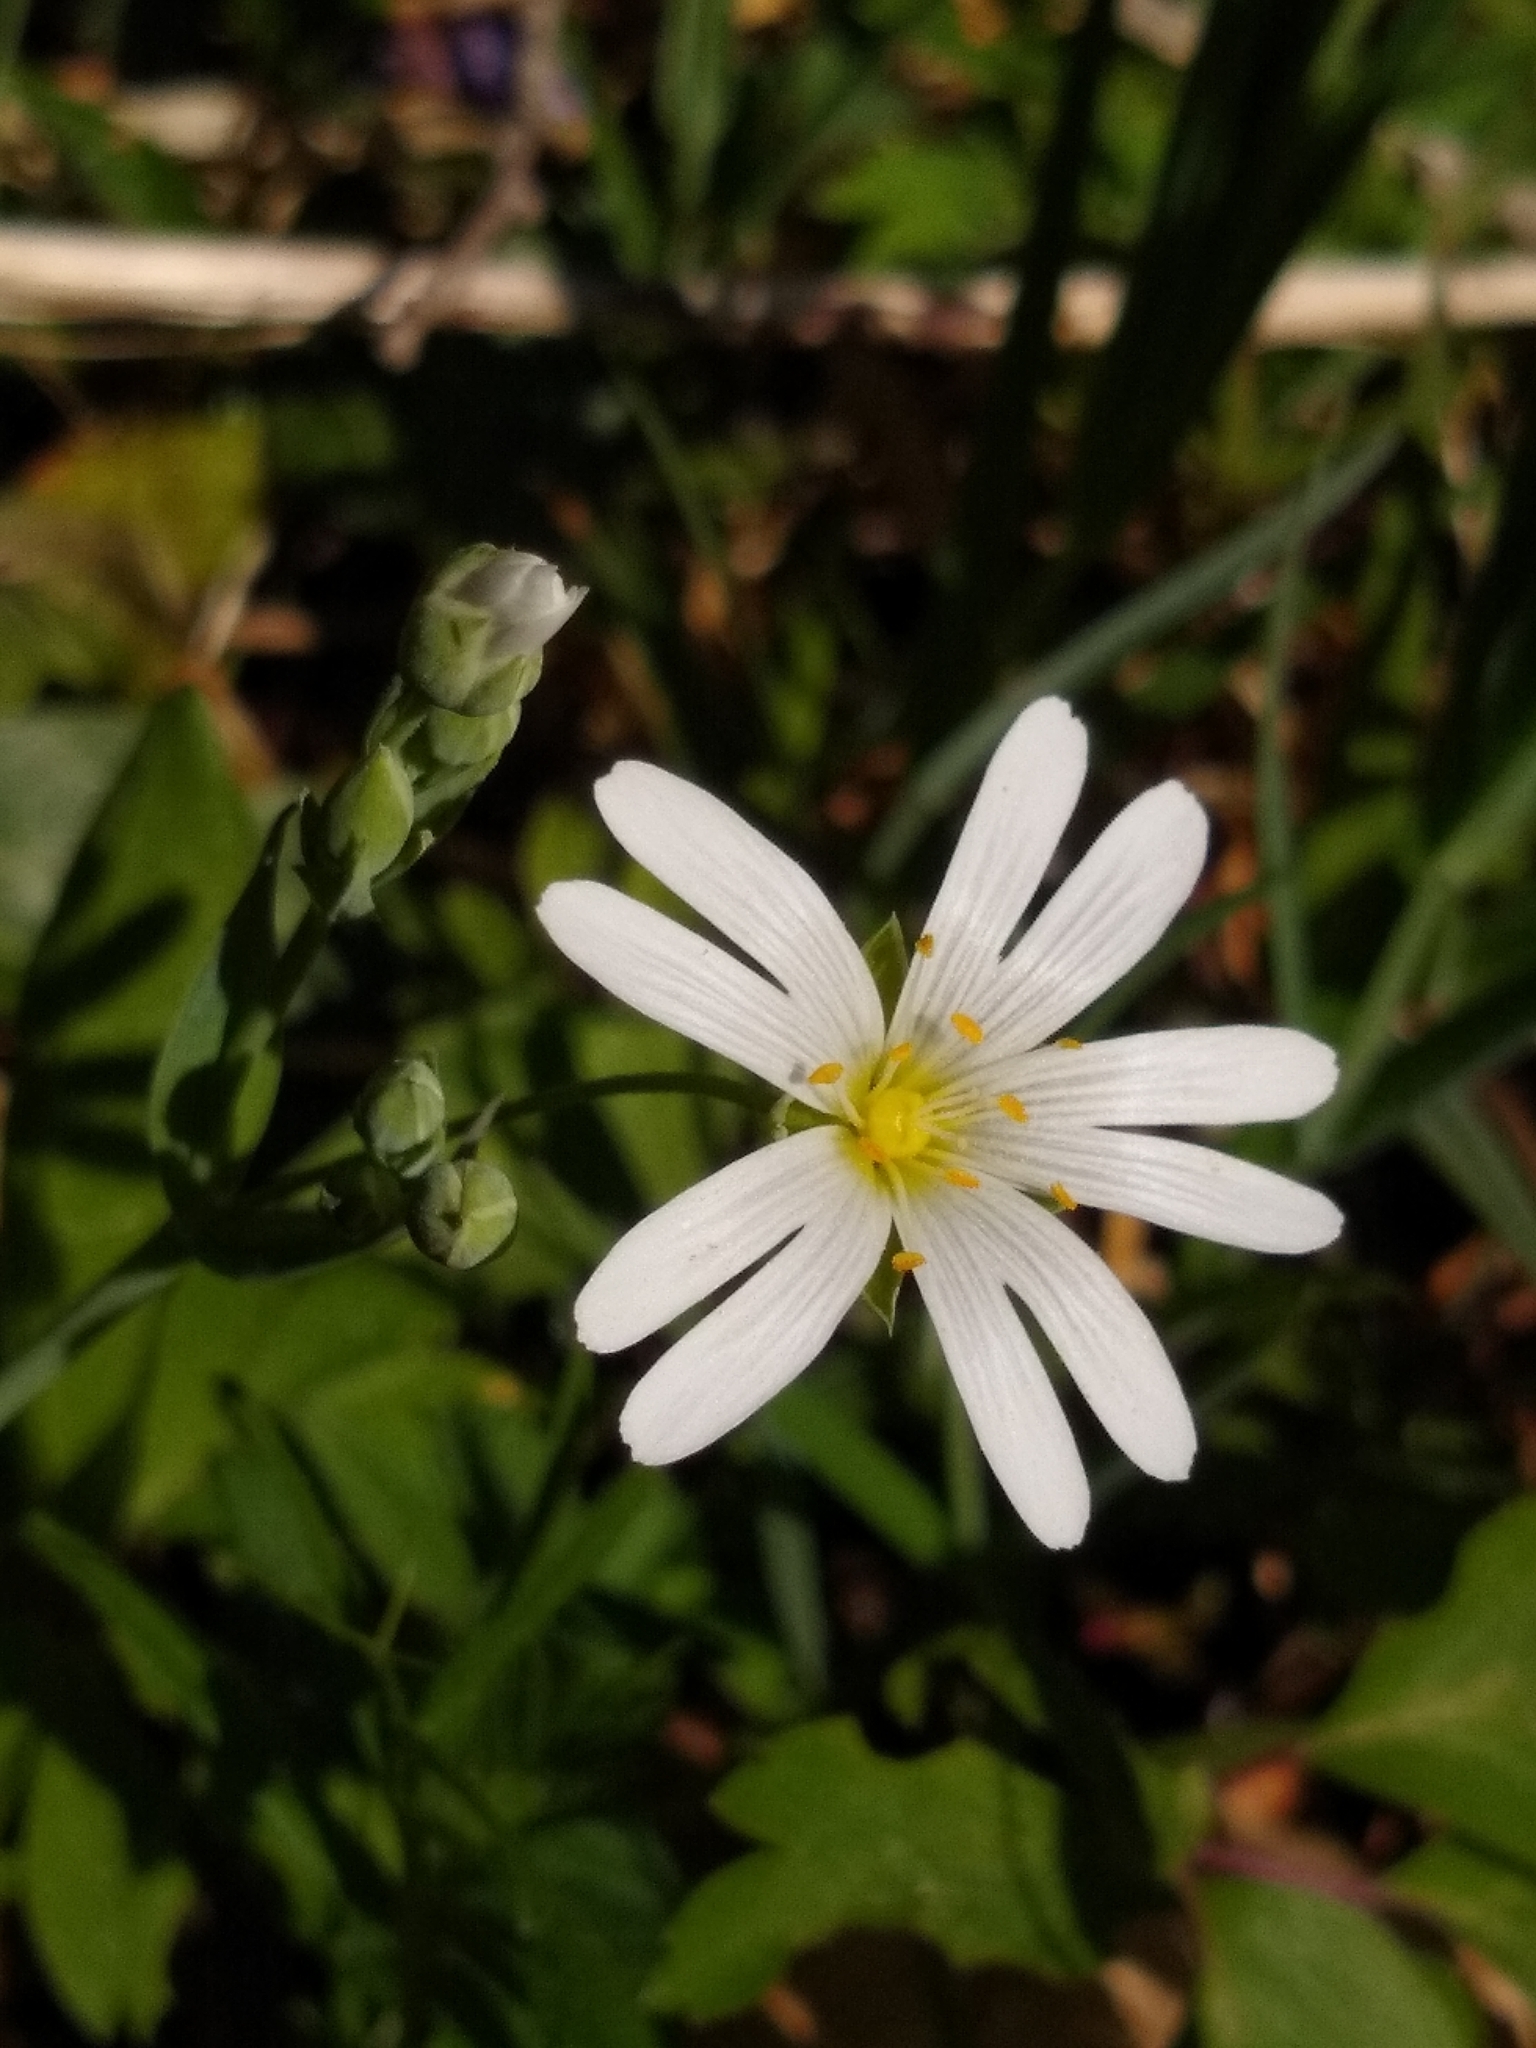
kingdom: Plantae
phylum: Tracheophyta
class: Magnoliopsida
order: Caryophyllales
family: Caryophyllaceae
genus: Rabelera
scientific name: Rabelera holostea
